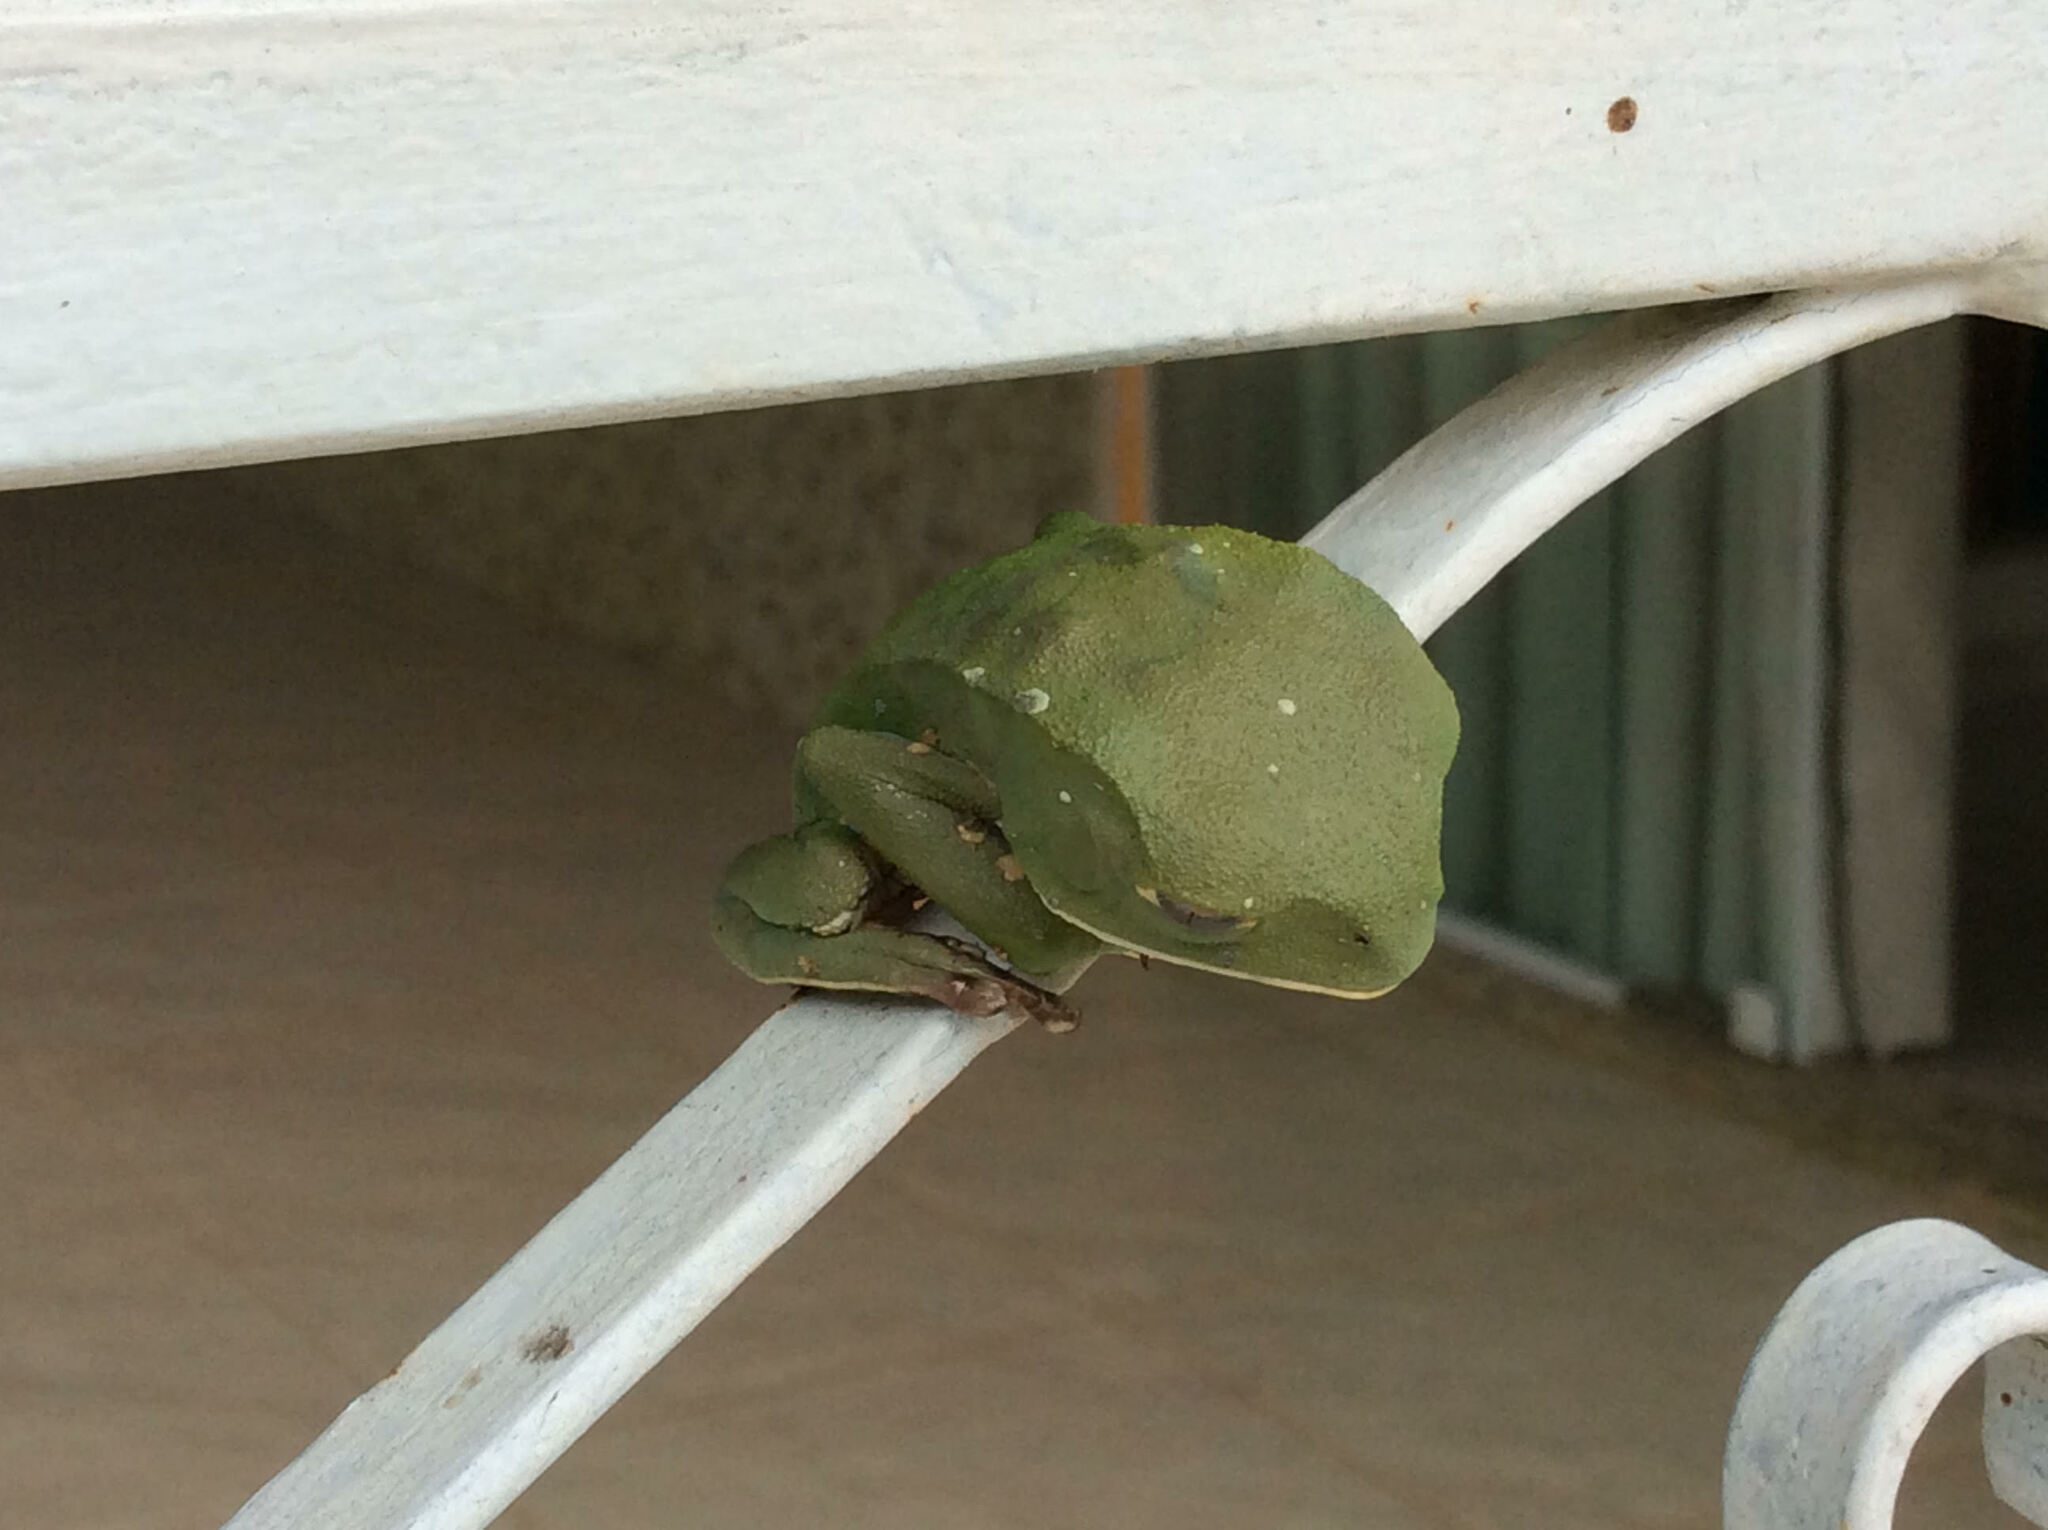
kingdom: Animalia
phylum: Chordata
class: Amphibia
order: Anura
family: Phyllomedusidae
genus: Phyllomedusa
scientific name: Phyllomedusa burmeisteri
